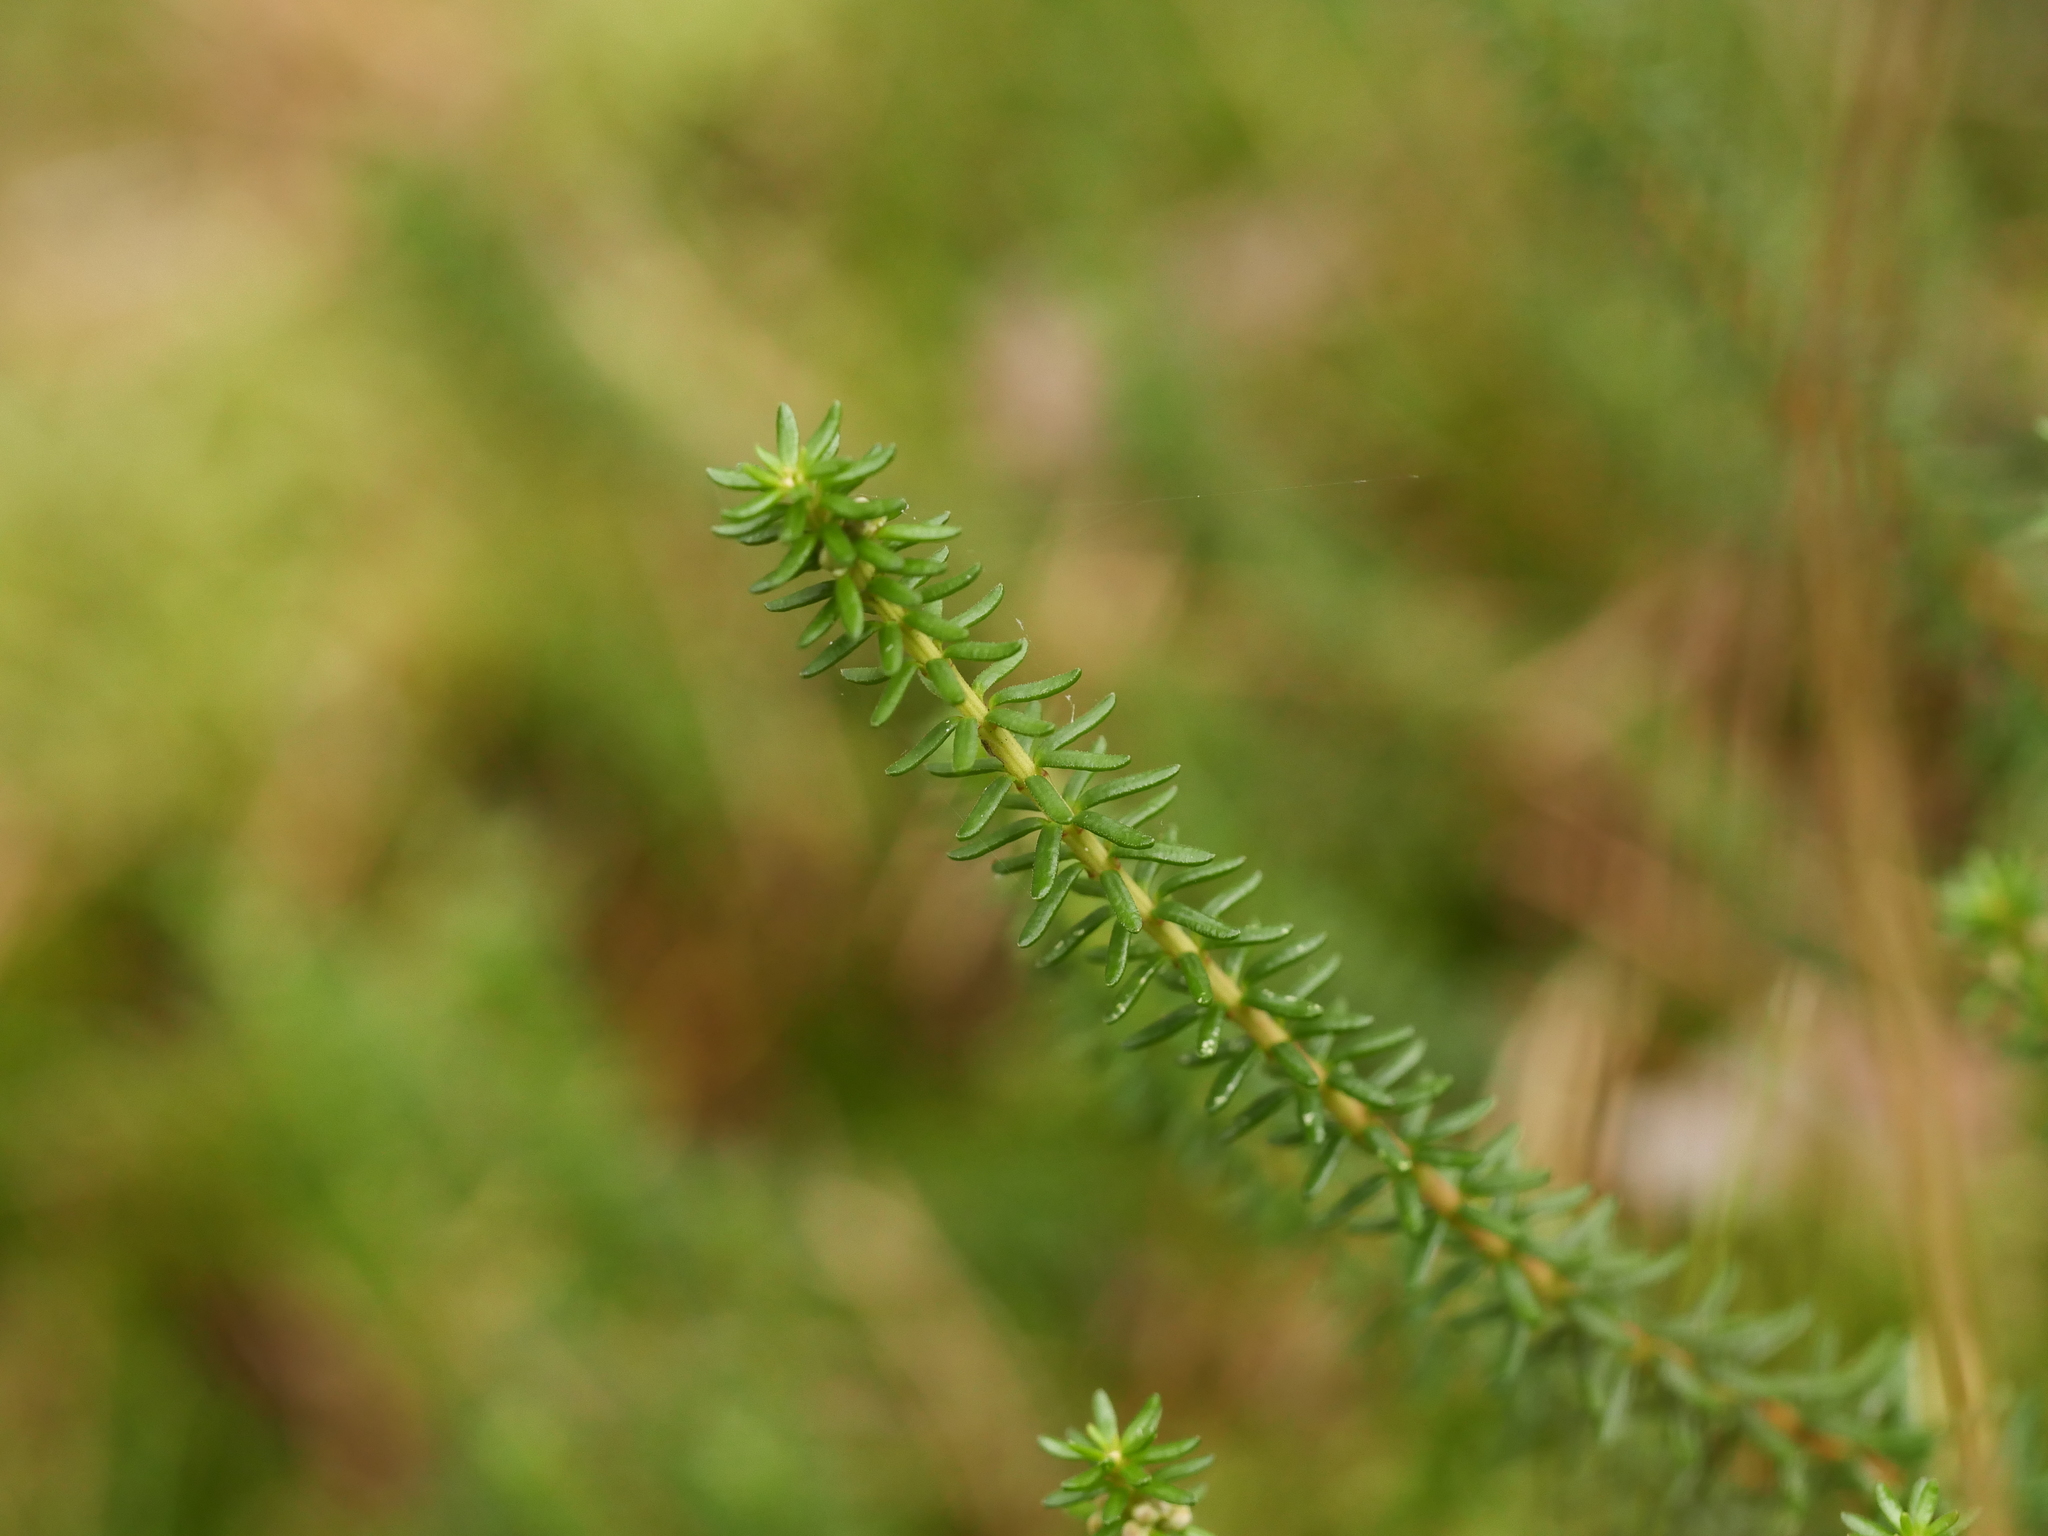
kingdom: Plantae
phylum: Tracheophyta
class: Magnoliopsida
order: Lamiales
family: Plantaginaceae
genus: Hippuris
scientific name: Hippuris vulgaris
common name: Mare's-tail
